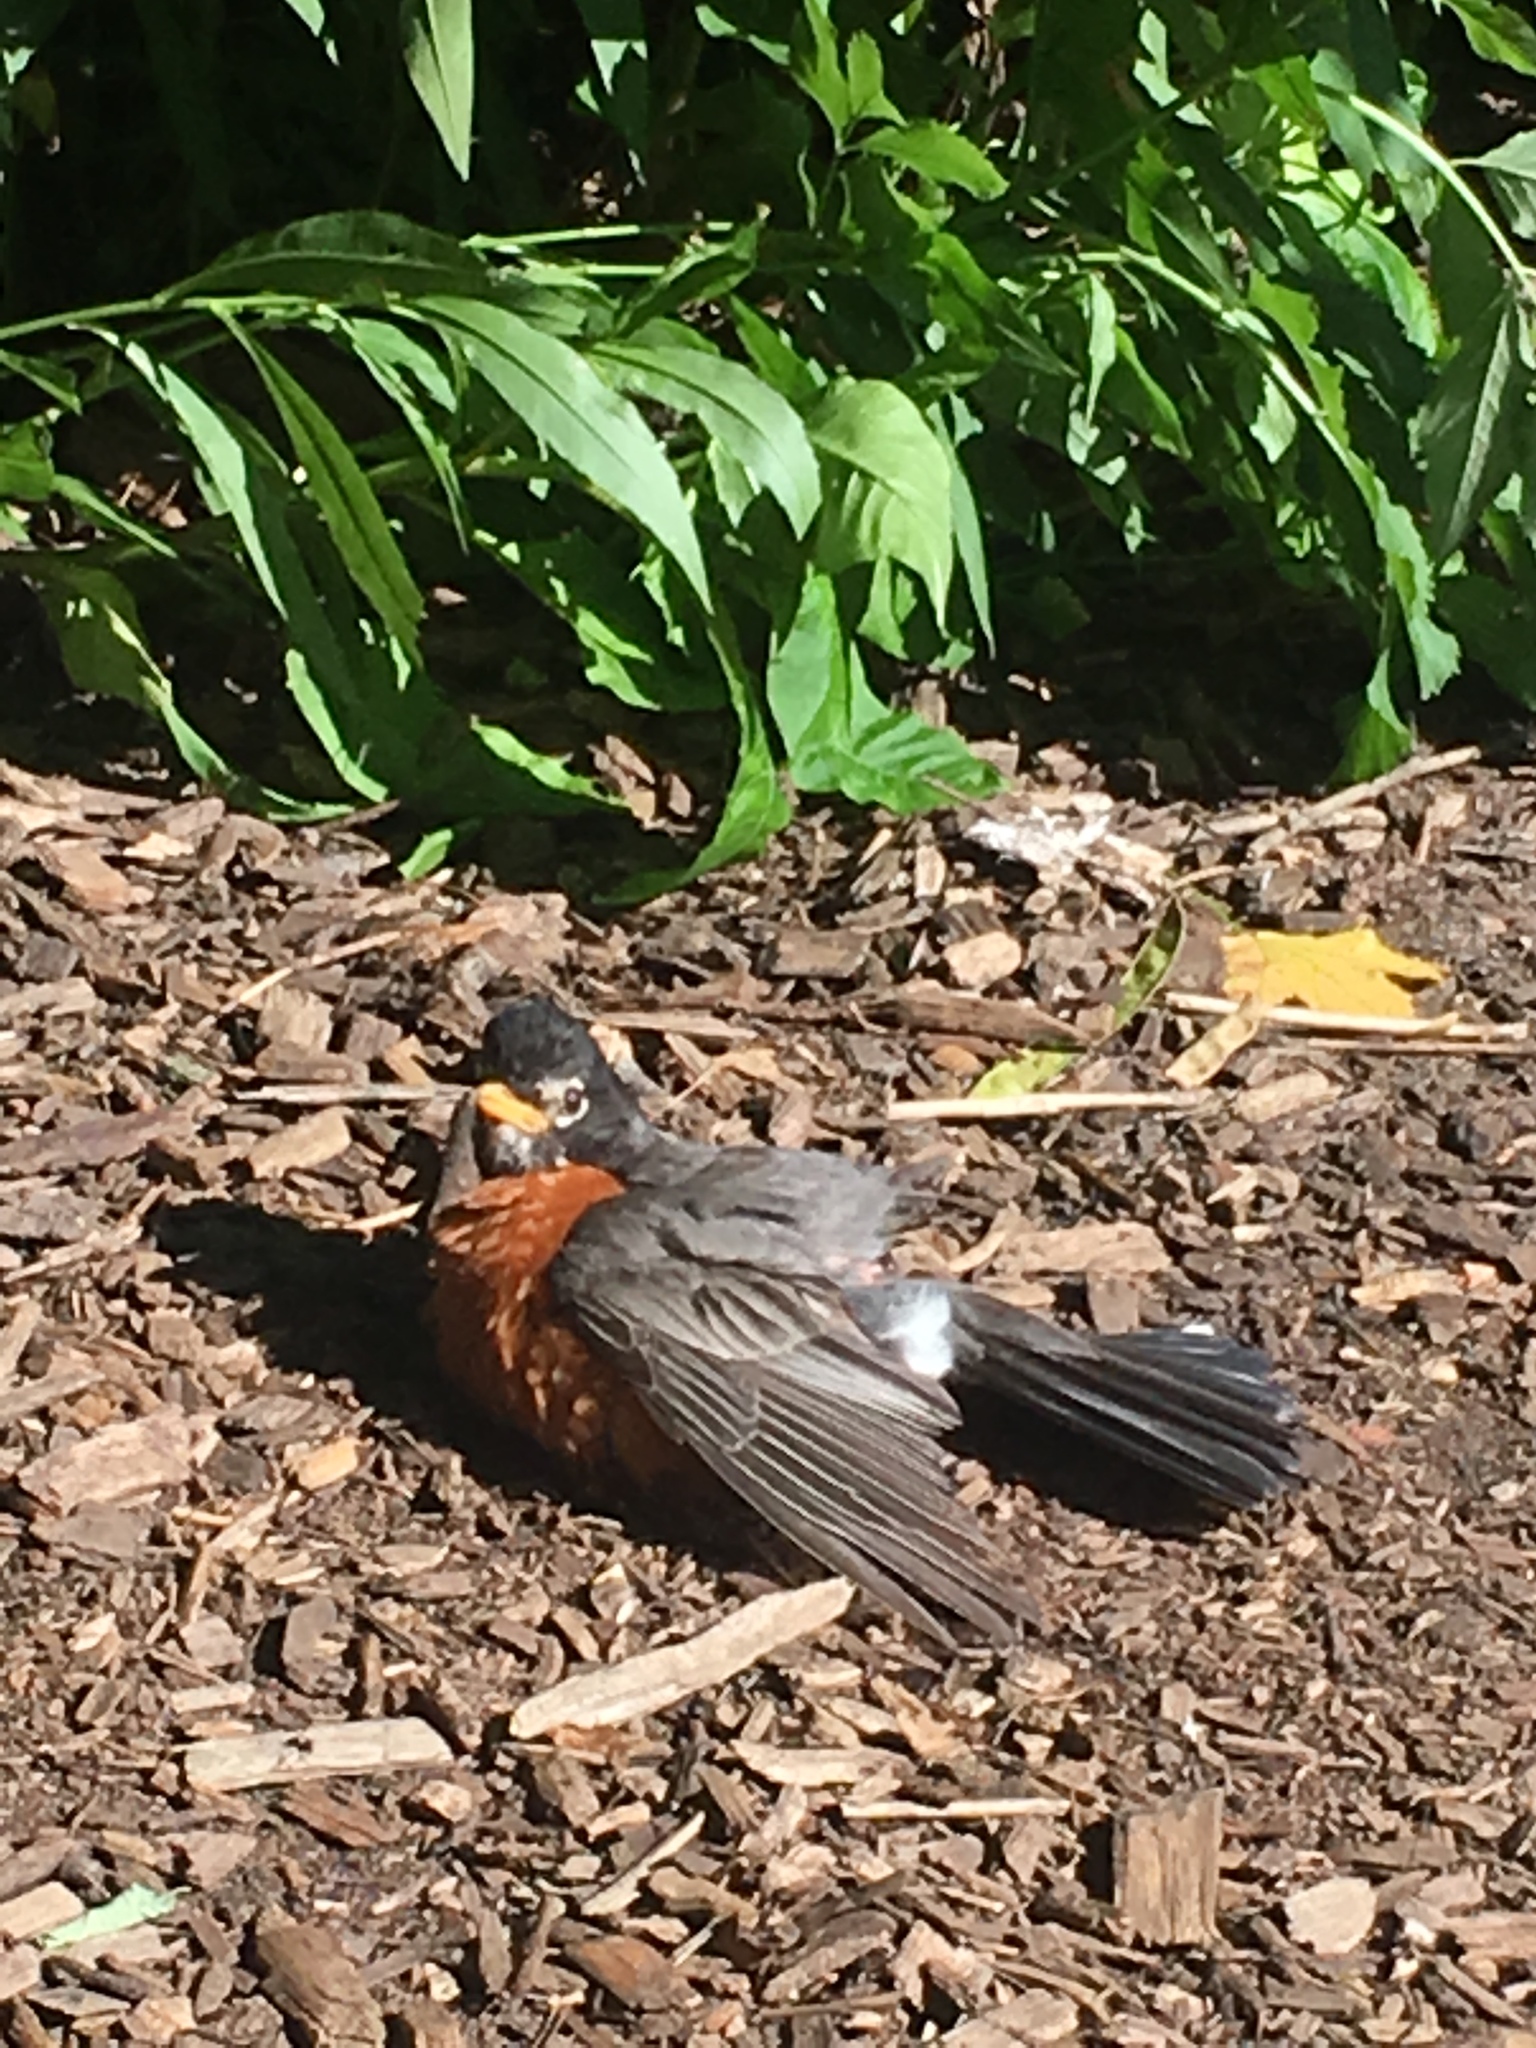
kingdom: Animalia
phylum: Chordata
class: Aves
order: Passeriformes
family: Turdidae
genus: Turdus
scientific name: Turdus migratorius
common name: American robin
